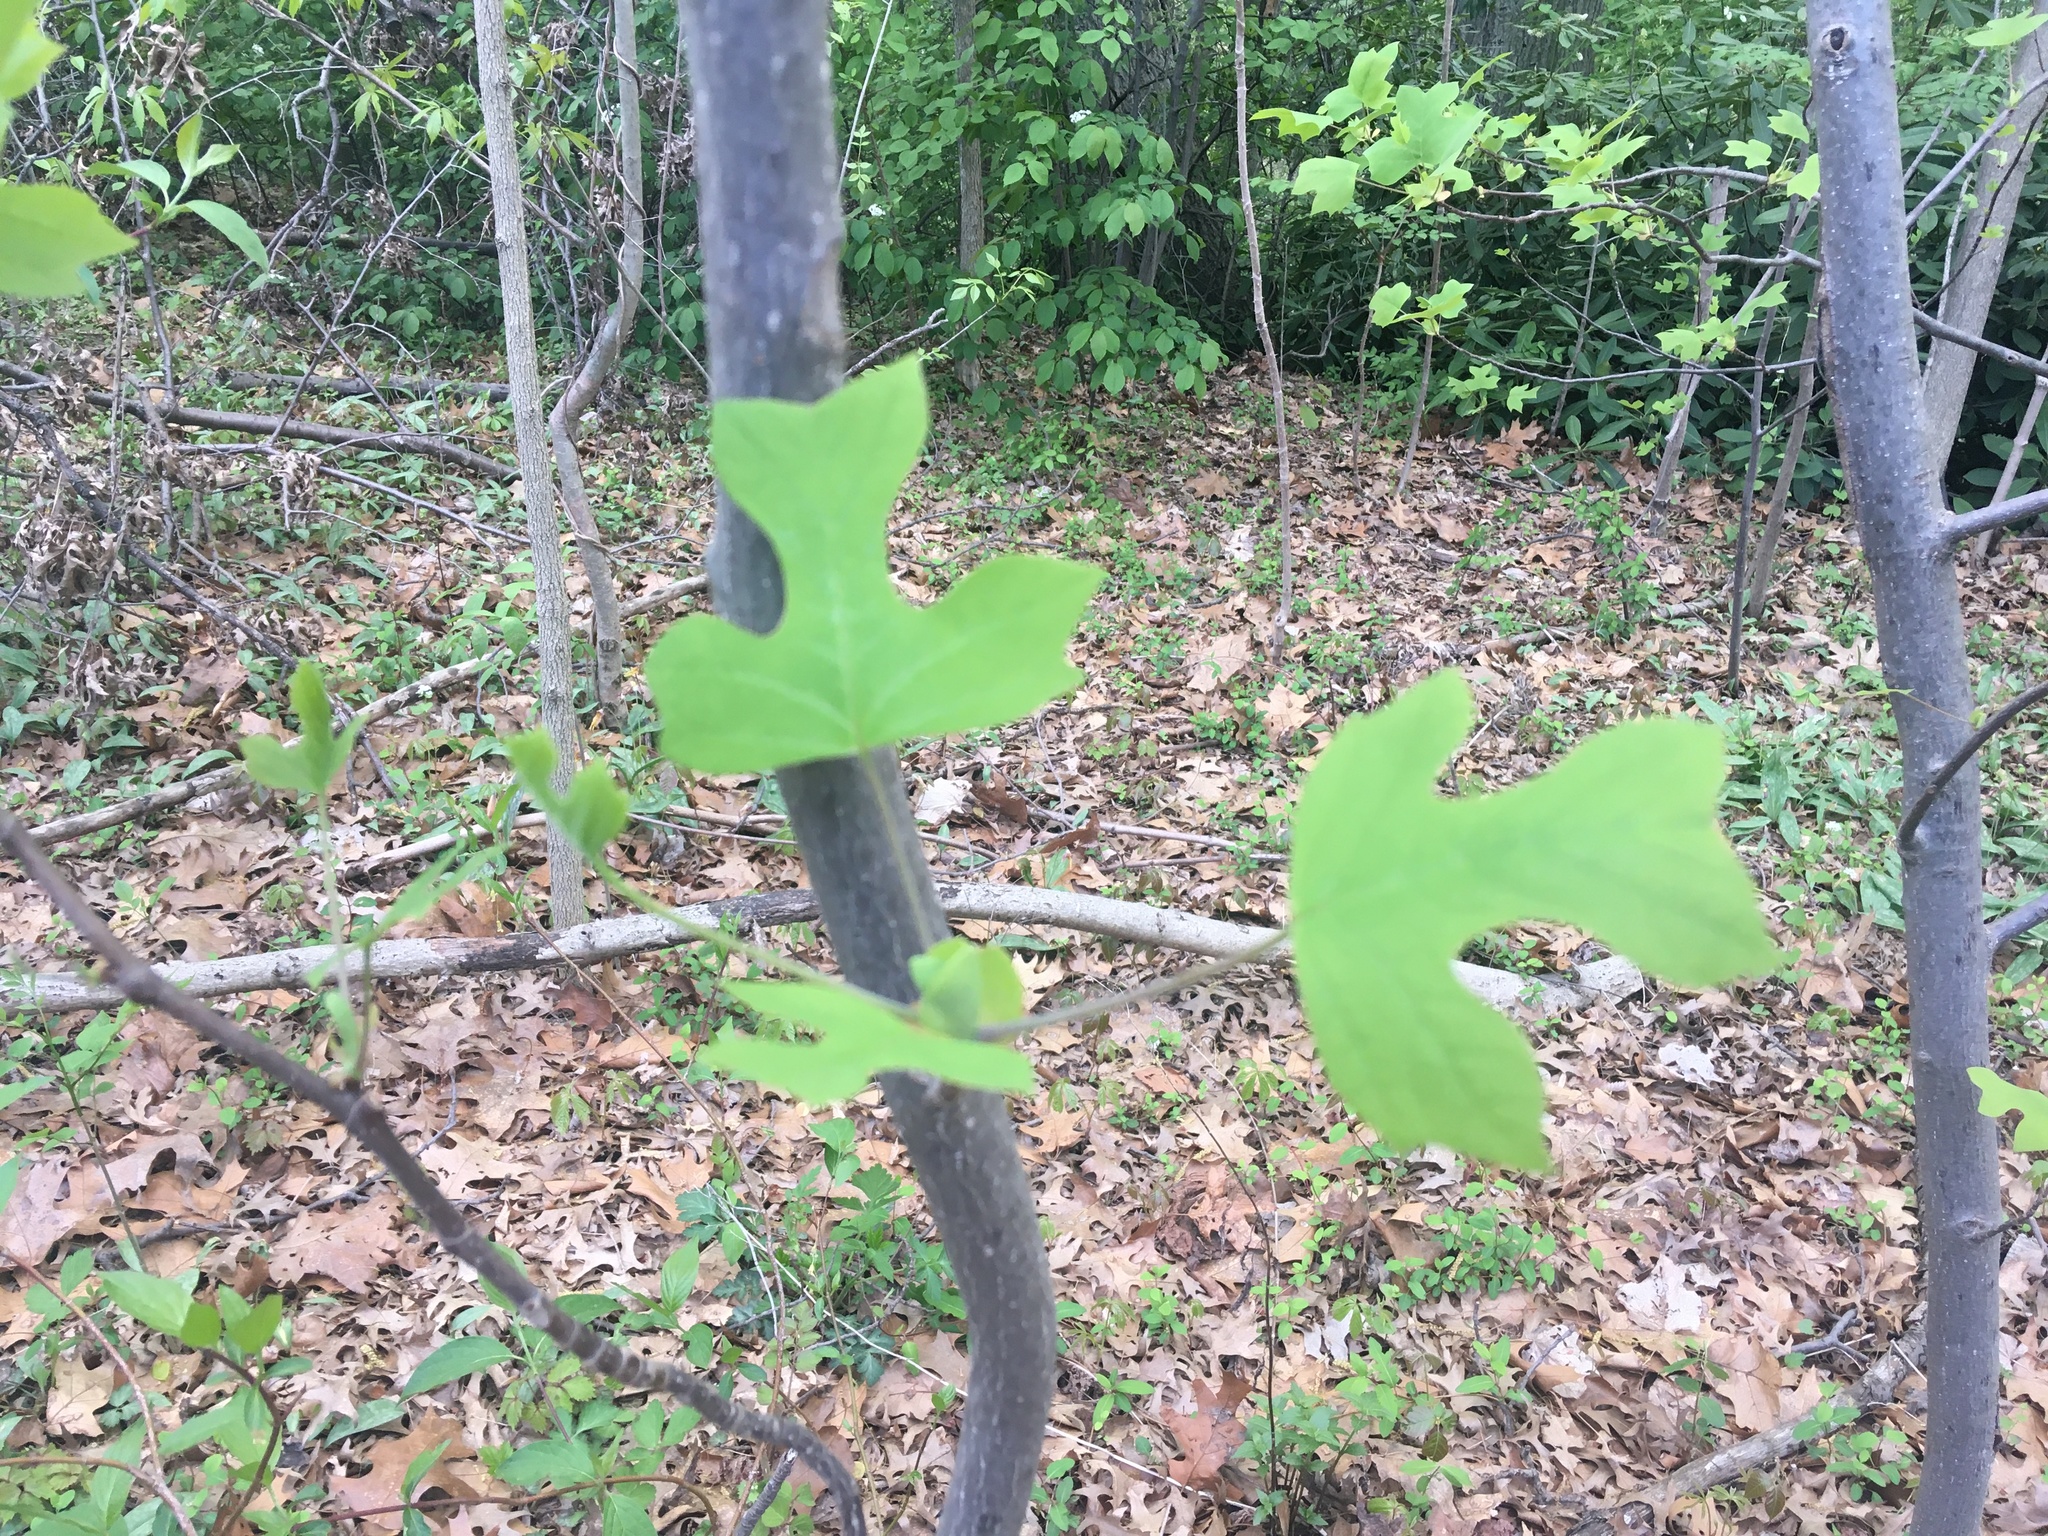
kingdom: Plantae
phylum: Tracheophyta
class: Magnoliopsida
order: Magnoliales
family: Magnoliaceae
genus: Liriodendron
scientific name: Liriodendron tulipifera
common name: Tulip tree
